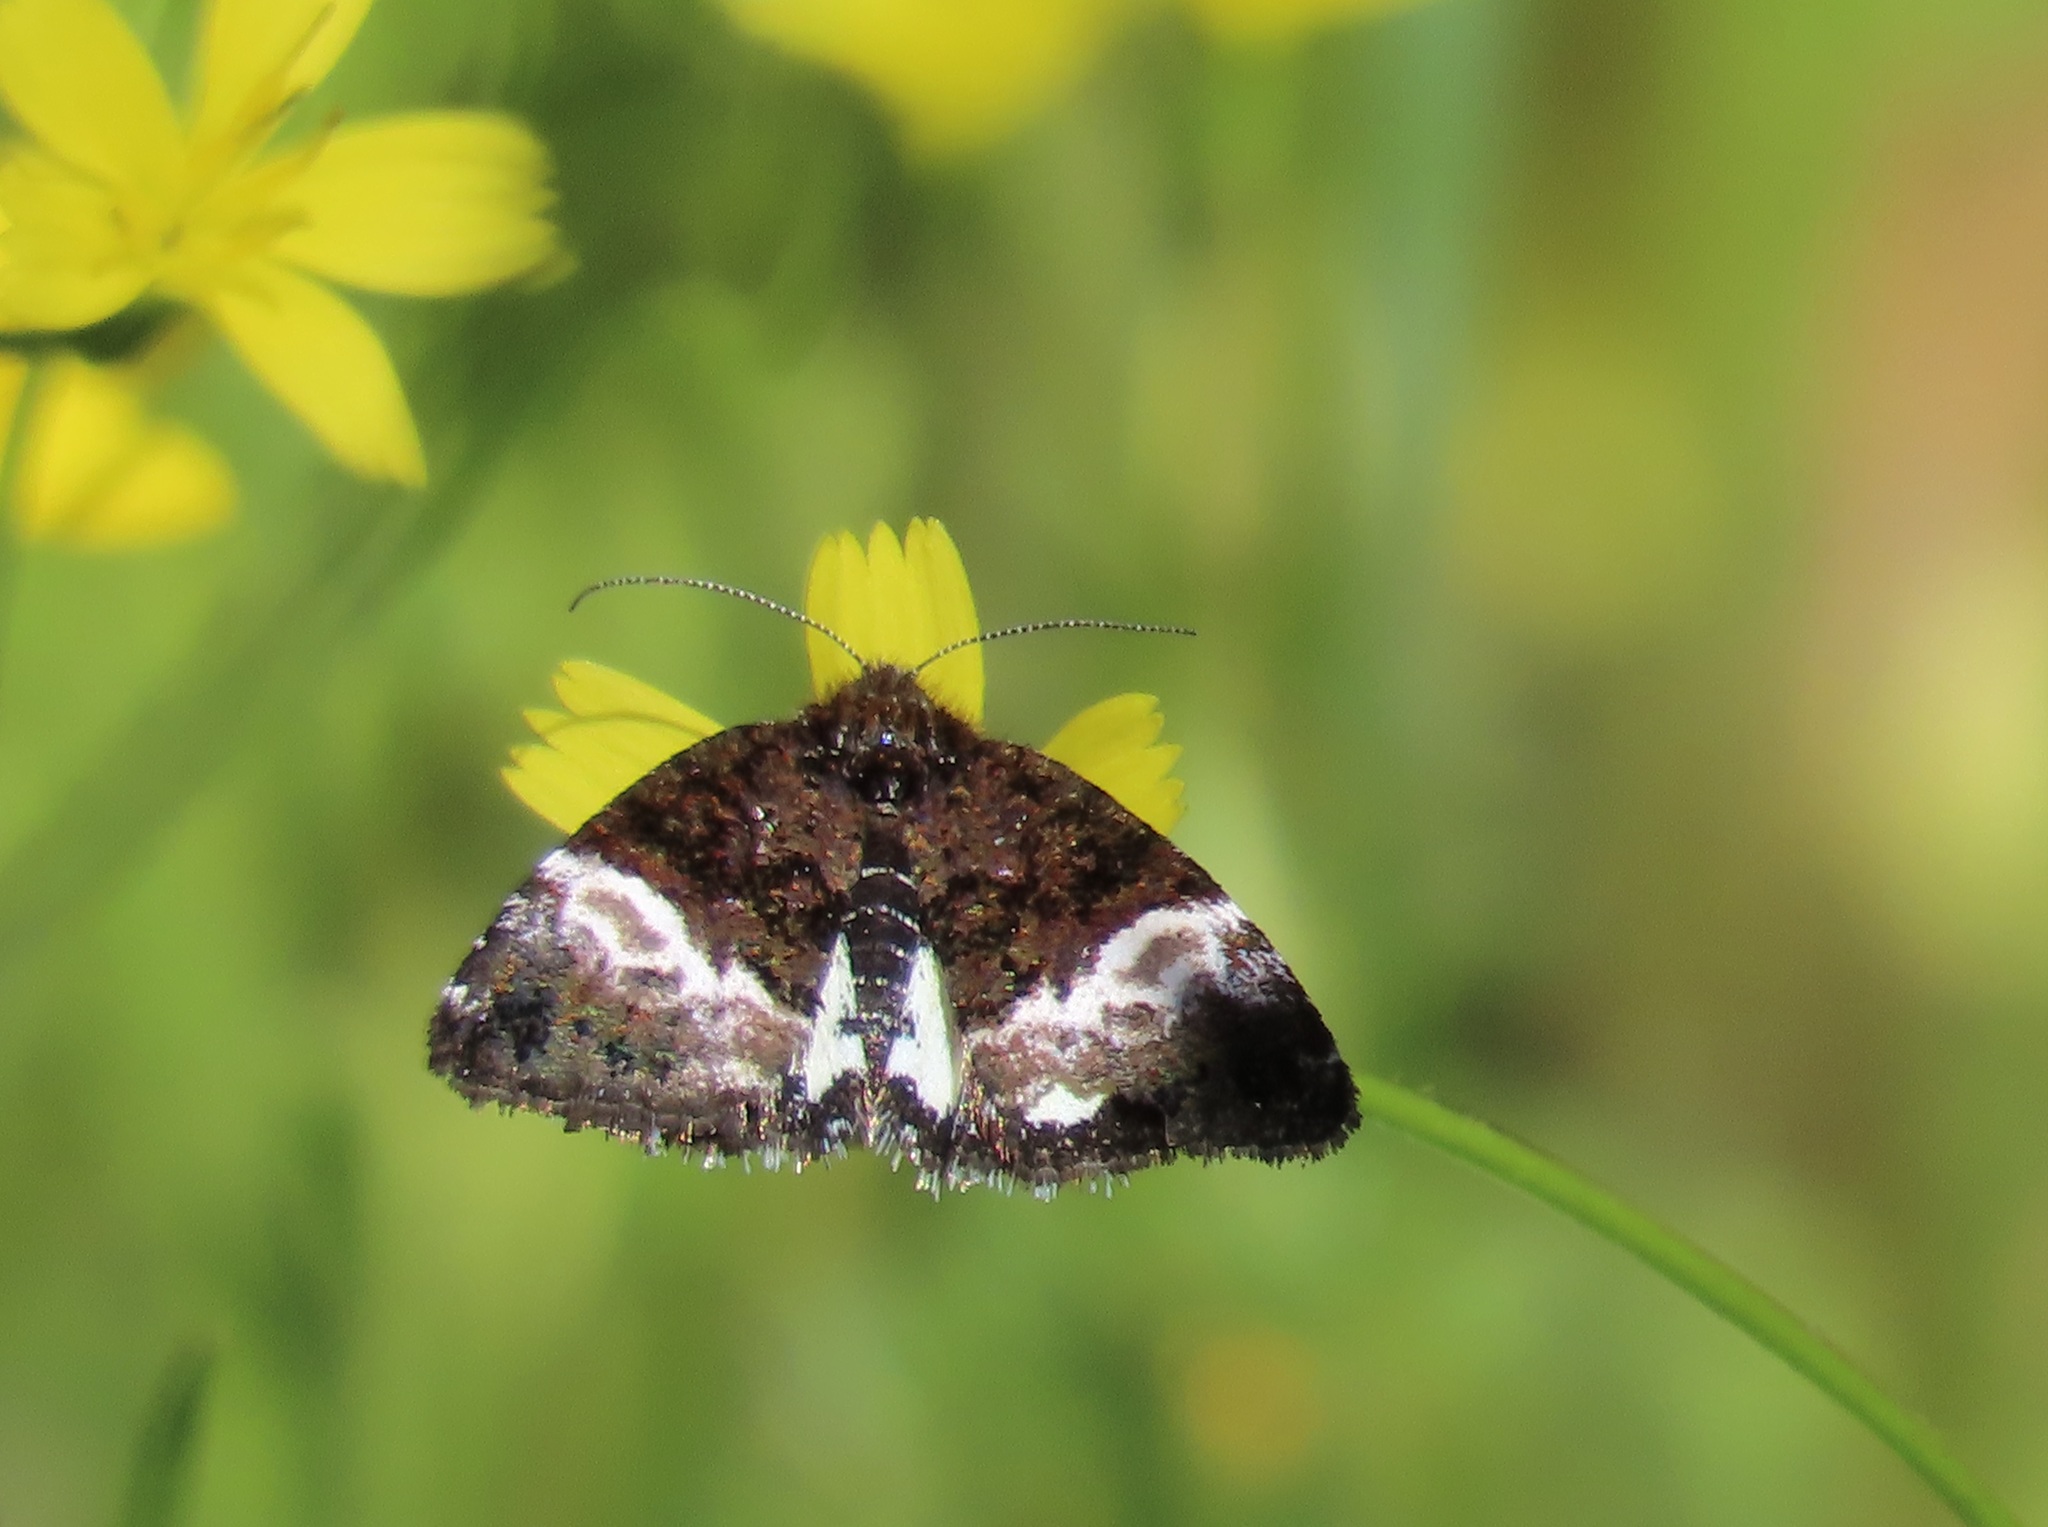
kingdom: Animalia
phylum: Arthropoda
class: Insecta
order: Lepidoptera
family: Noctuidae
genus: Annaphila
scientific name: Annaphila diva
